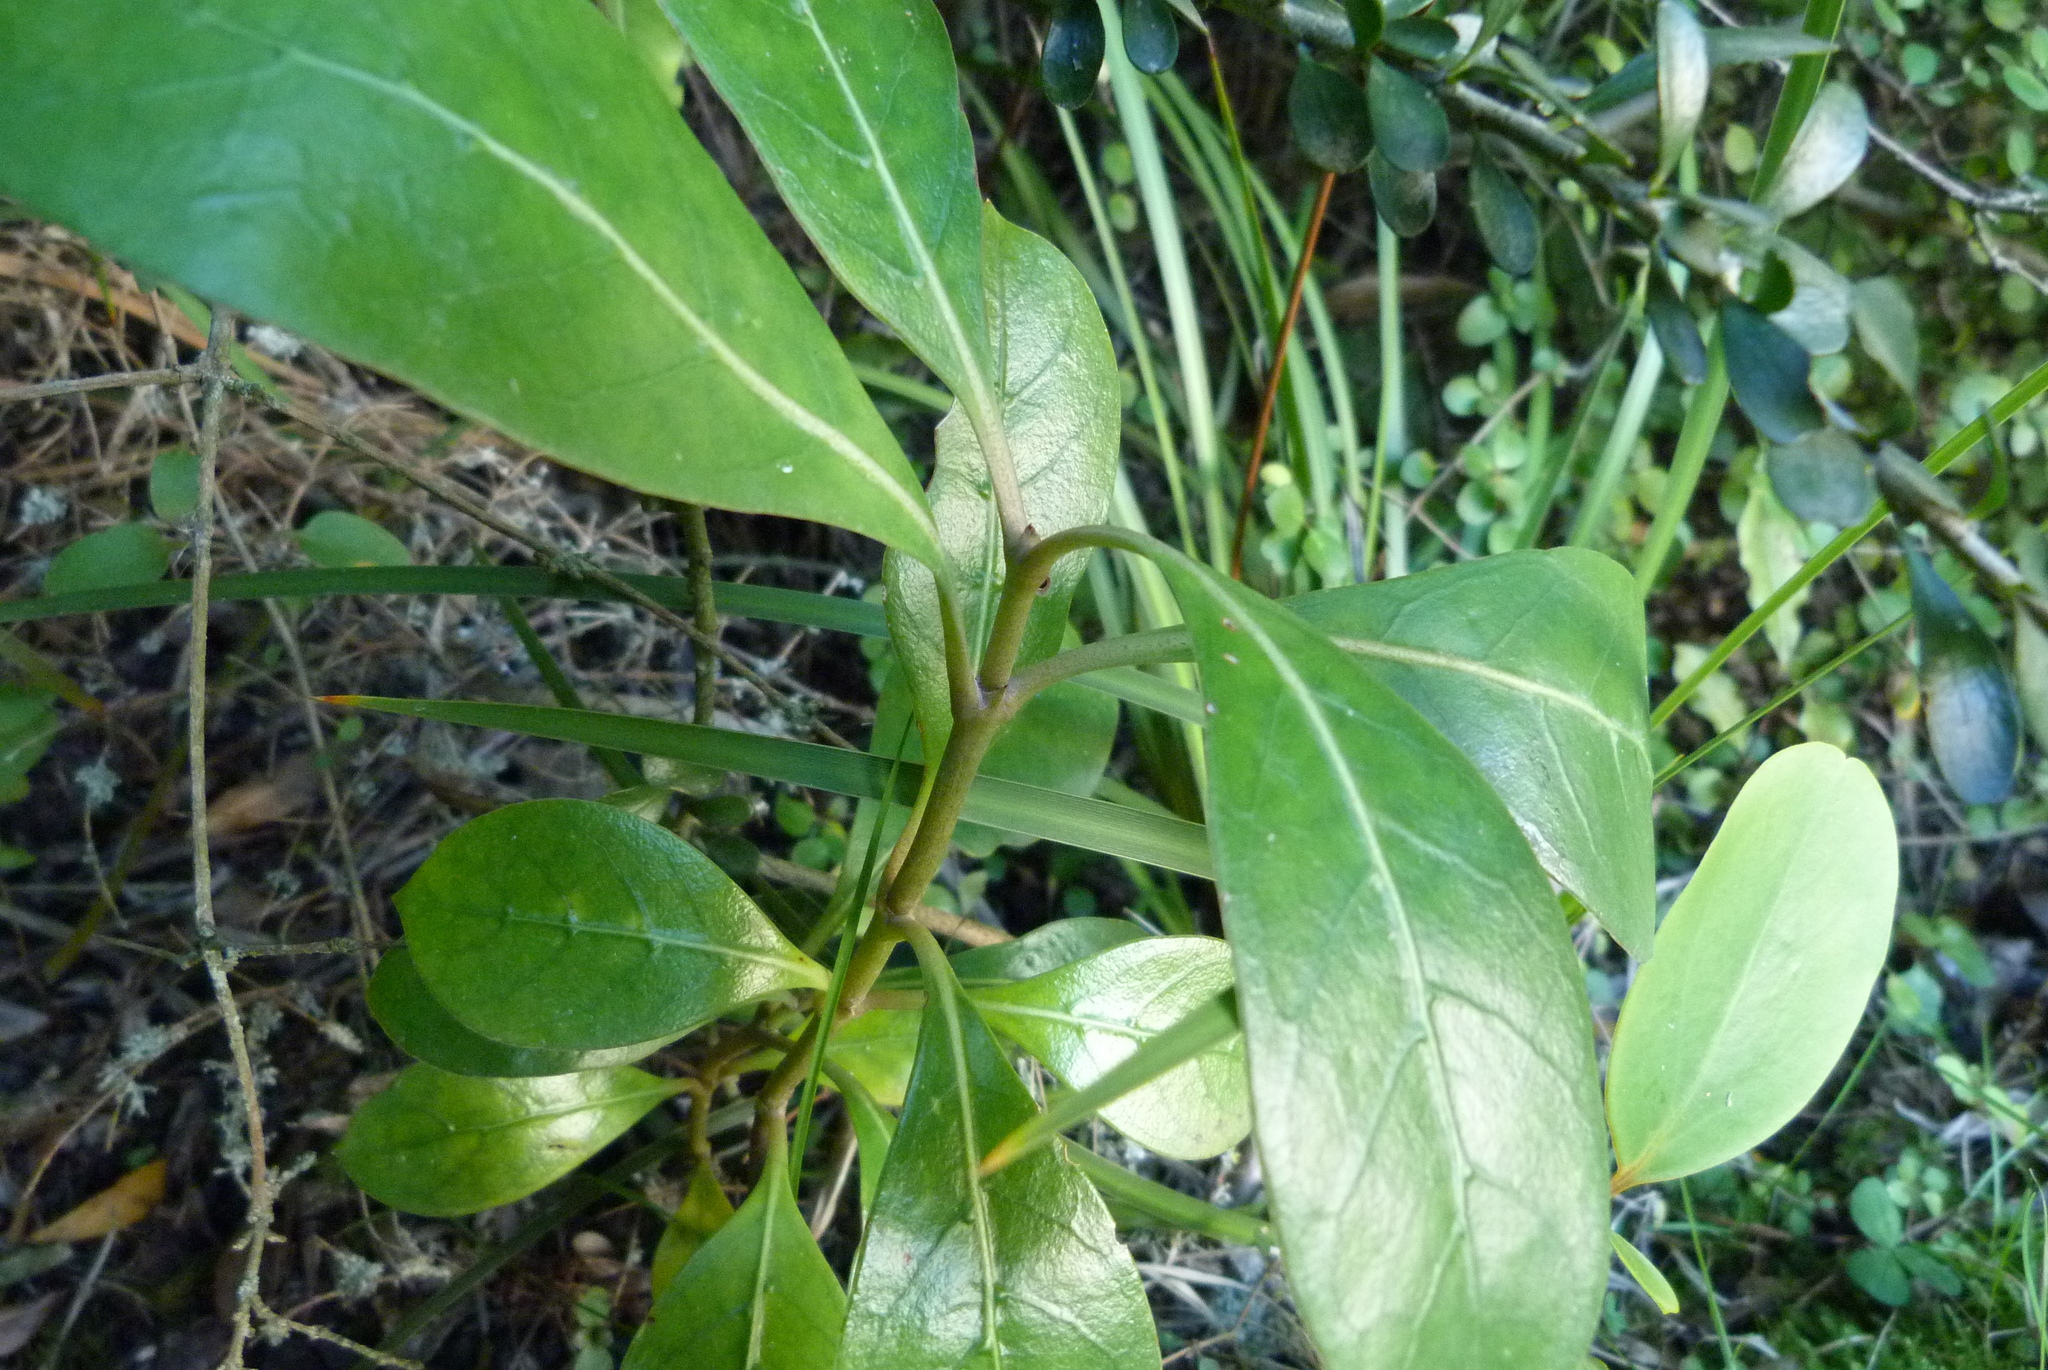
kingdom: Plantae
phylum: Tracheophyta
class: Magnoliopsida
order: Gentianales
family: Rubiaceae
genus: Coprosma
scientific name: Coprosma lucida
